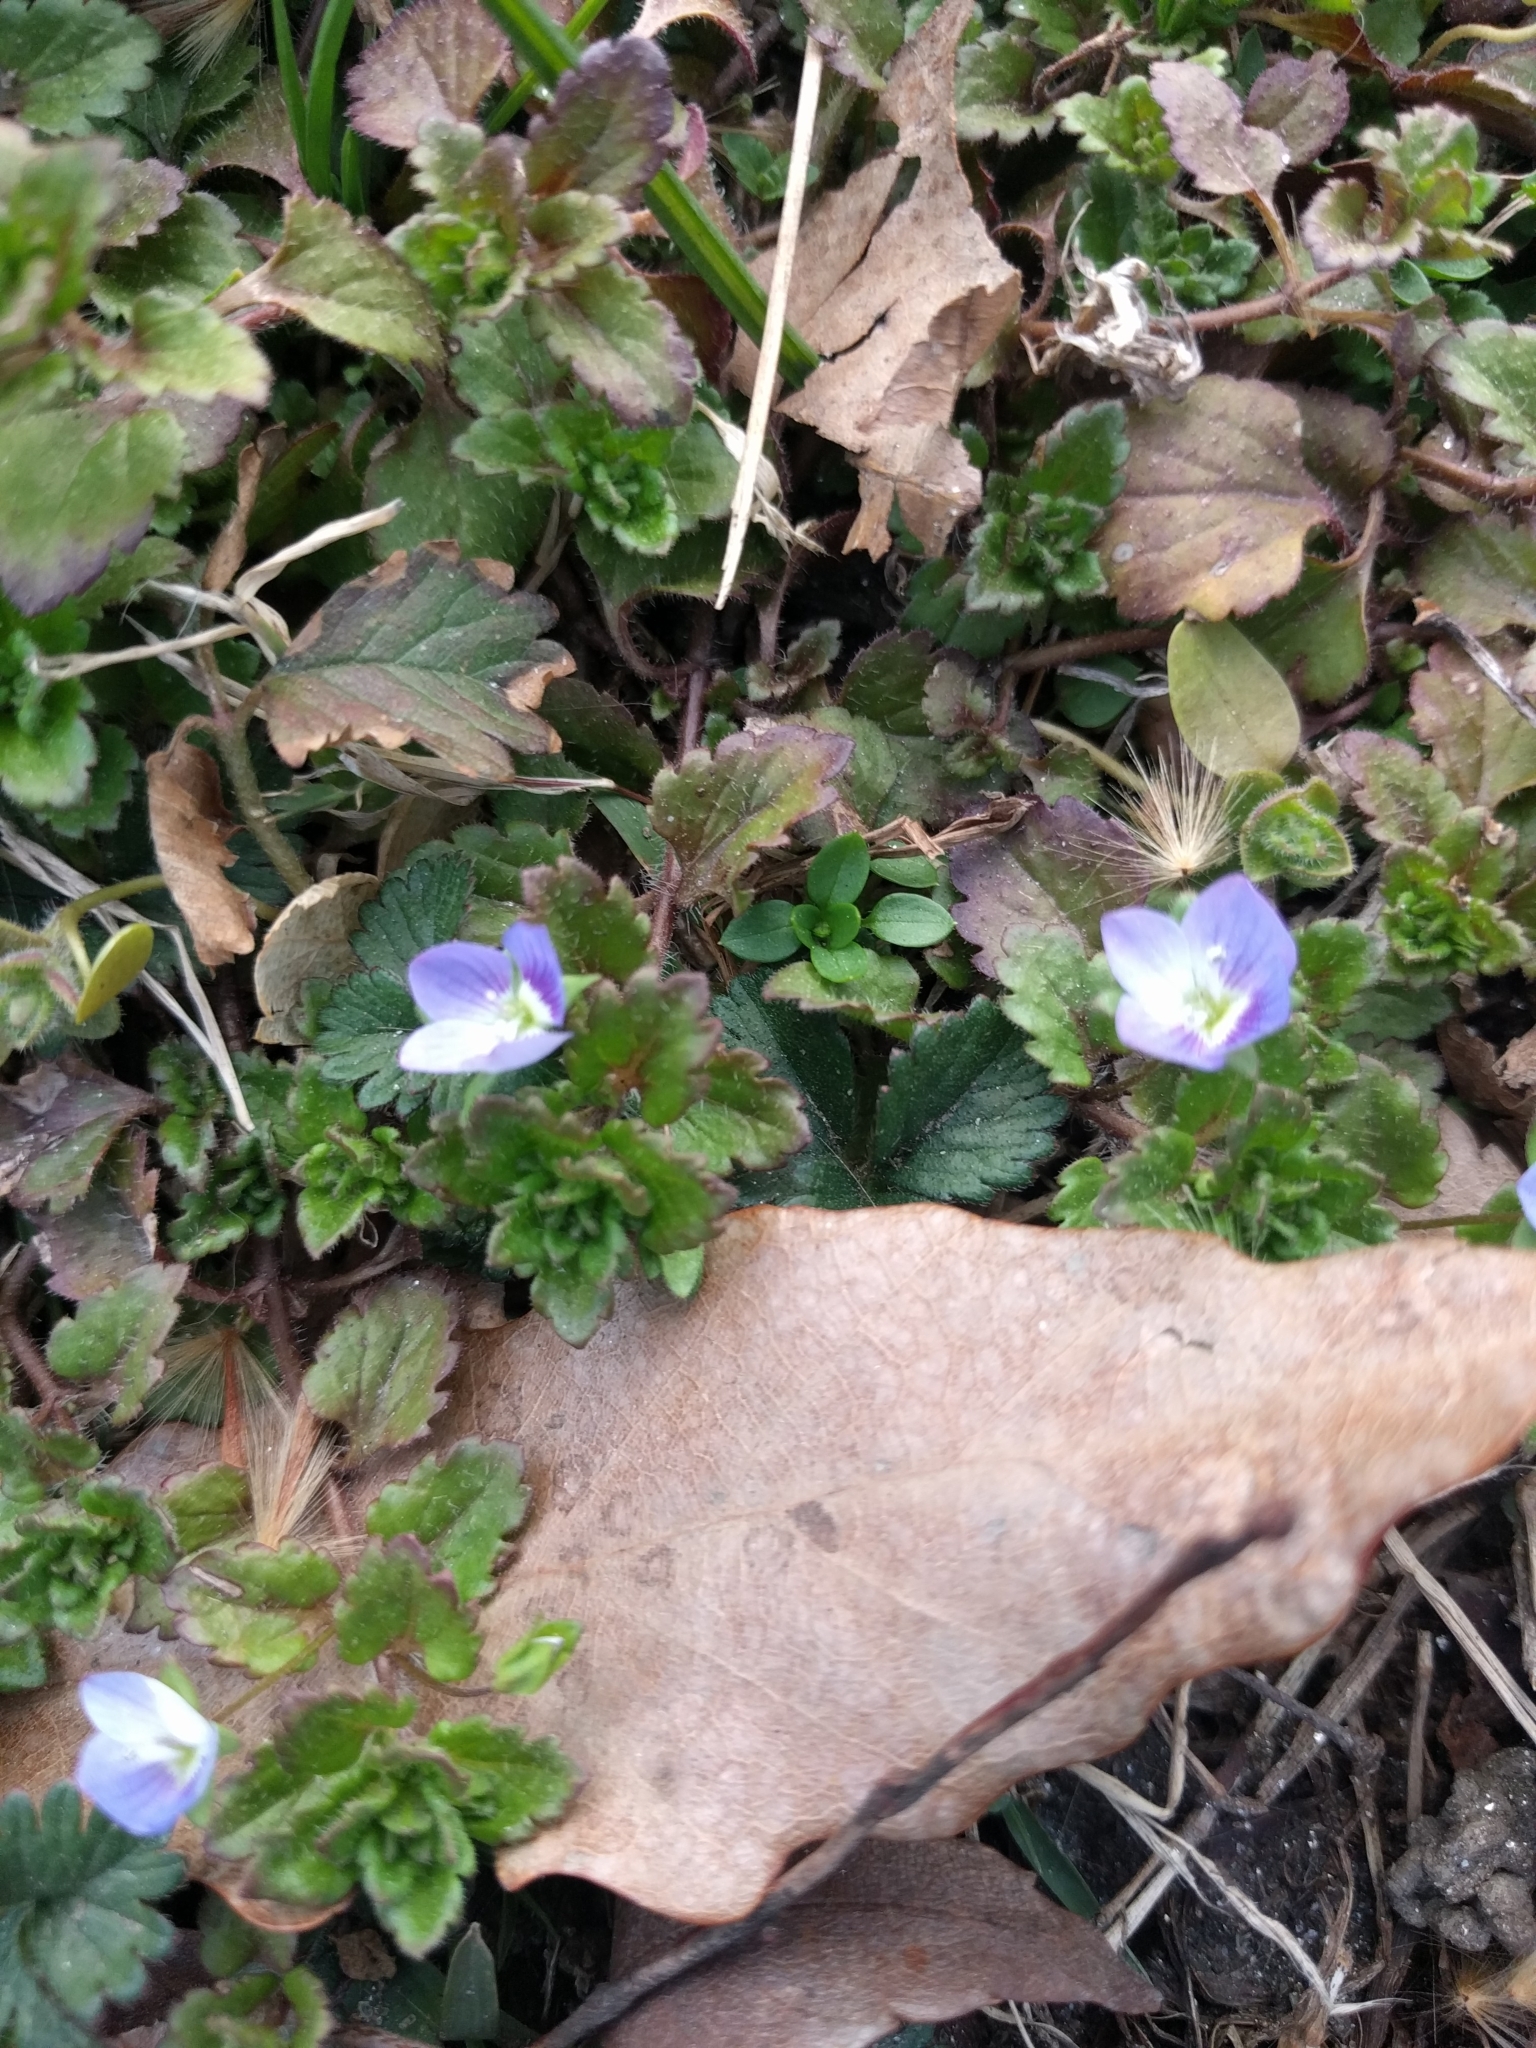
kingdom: Plantae
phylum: Tracheophyta
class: Magnoliopsida
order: Lamiales
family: Plantaginaceae
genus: Veronica
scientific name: Veronica persica
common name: Common field-speedwell
